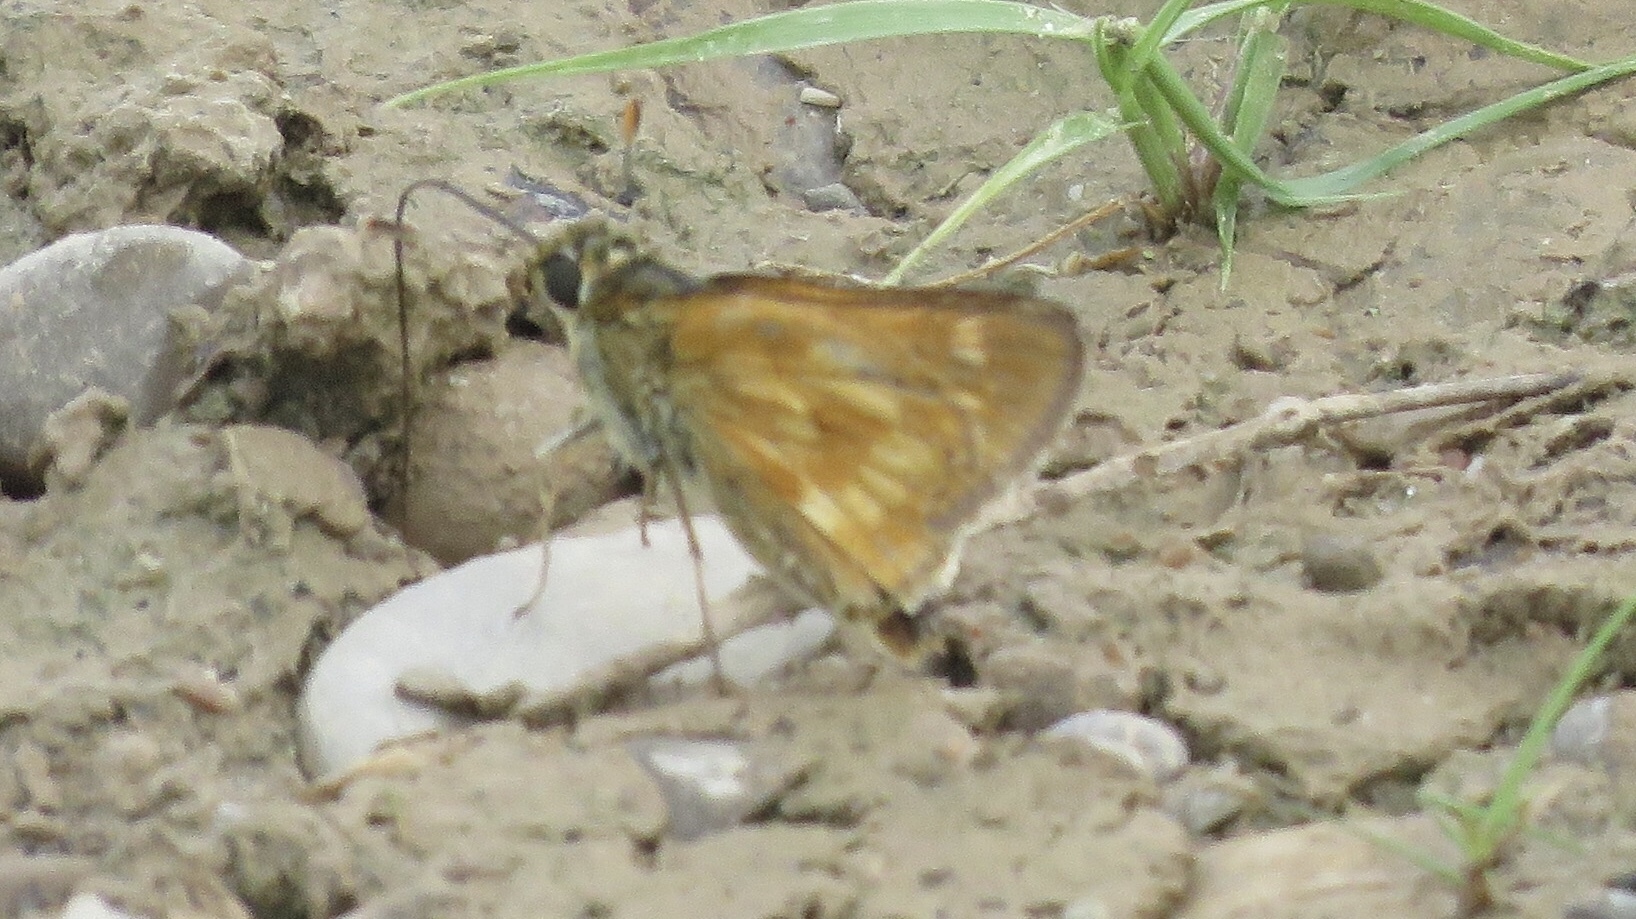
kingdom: Animalia
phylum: Arthropoda
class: Insecta
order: Lepidoptera
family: Hesperiidae
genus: Polites
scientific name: Polites mystic
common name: Long dash
